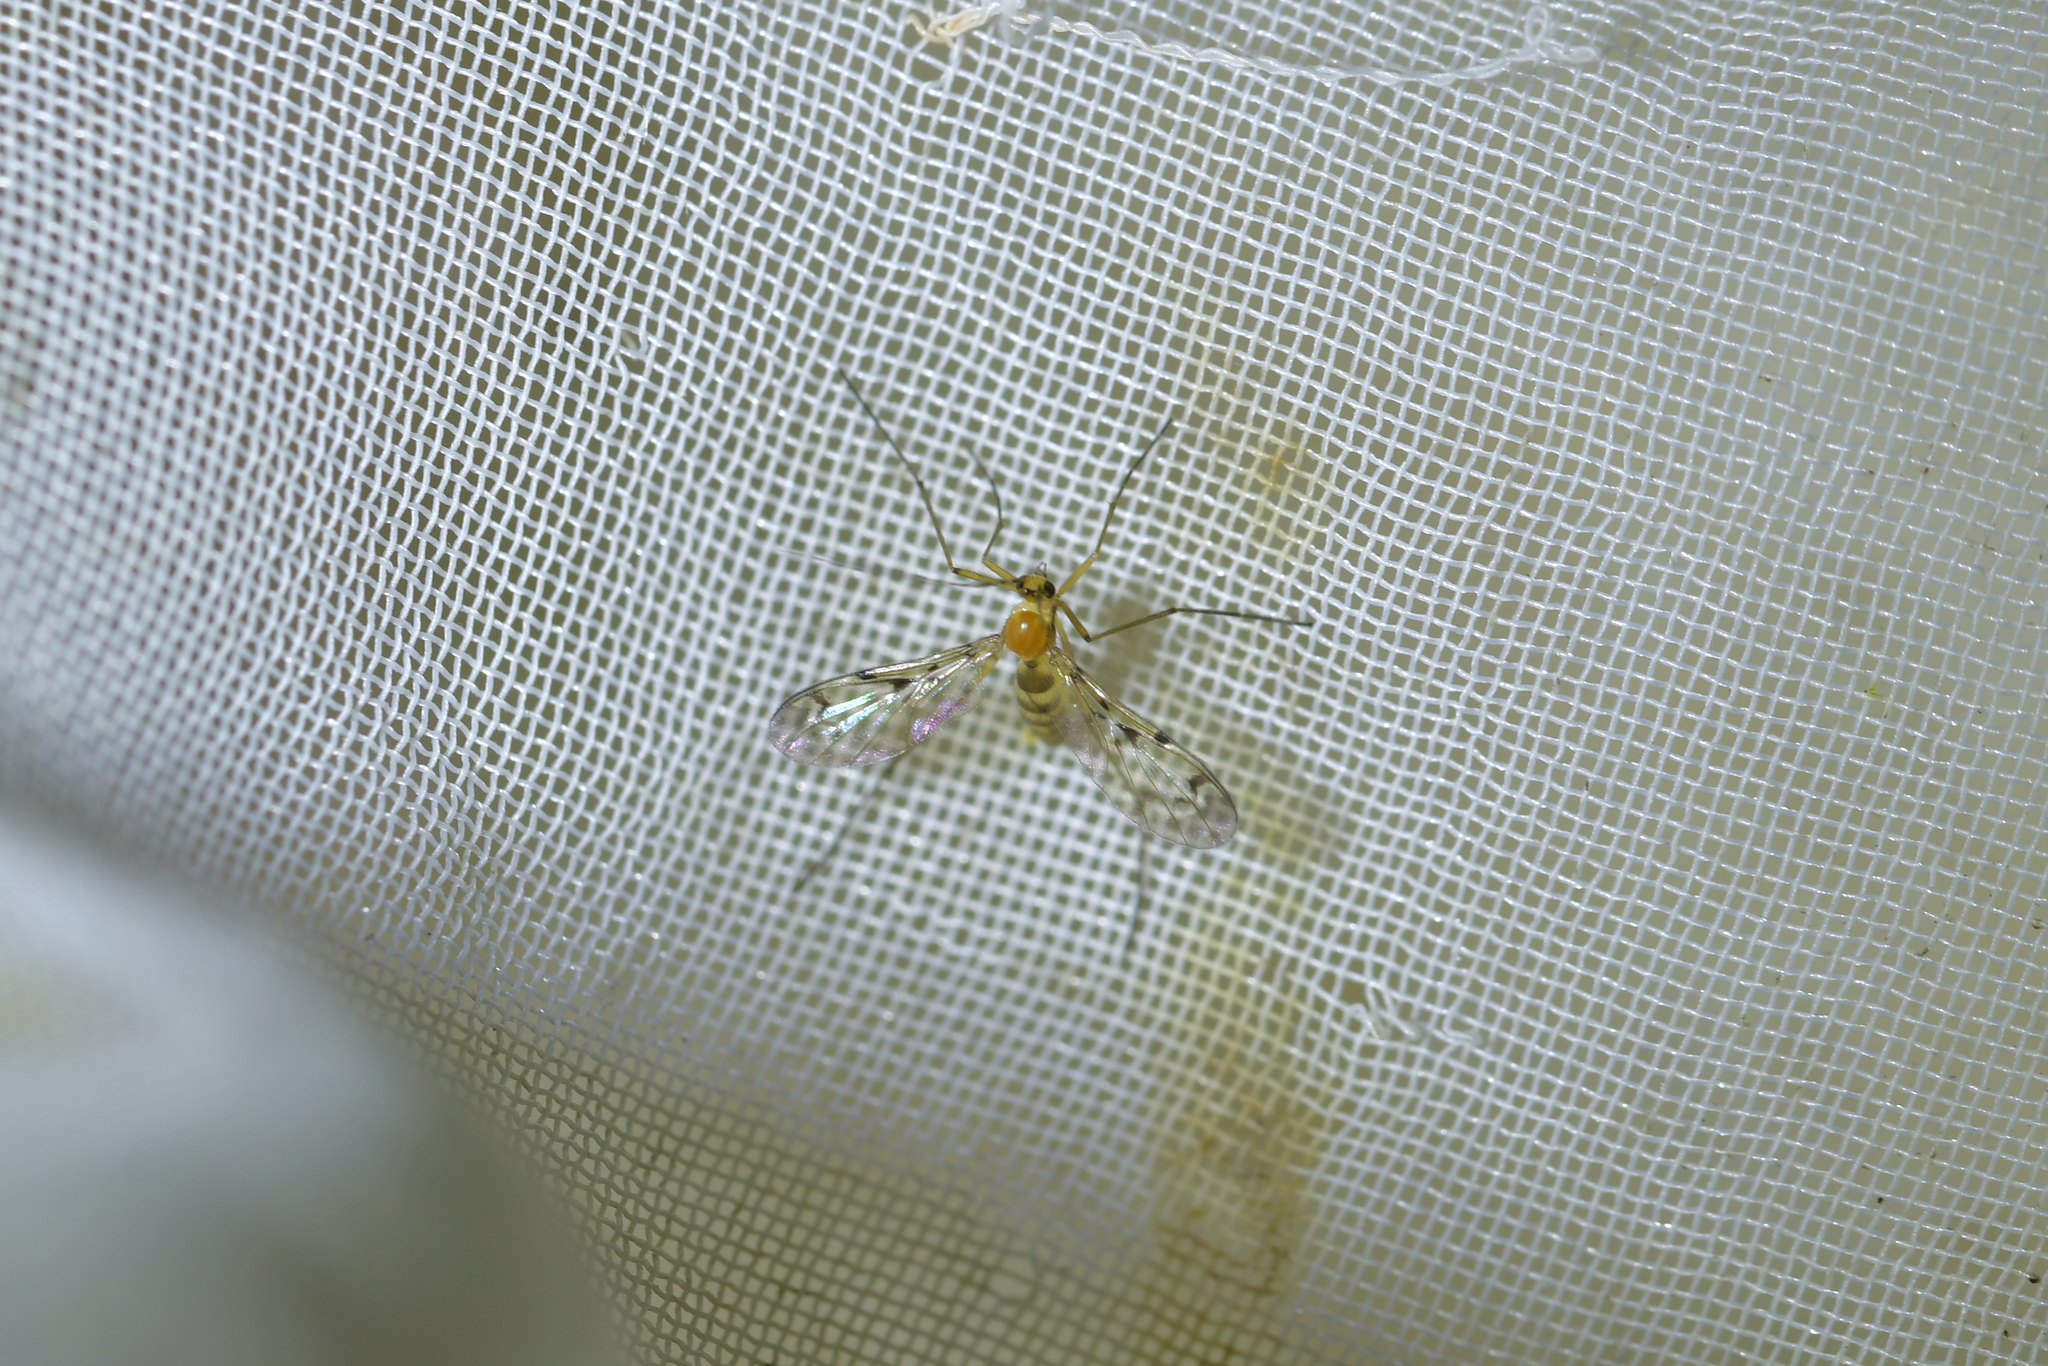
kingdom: Animalia
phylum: Arthropoda
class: Insecta
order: Diptera
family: Keroplatidae
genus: Chiasmoneura
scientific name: Chiasmoneura milligani
